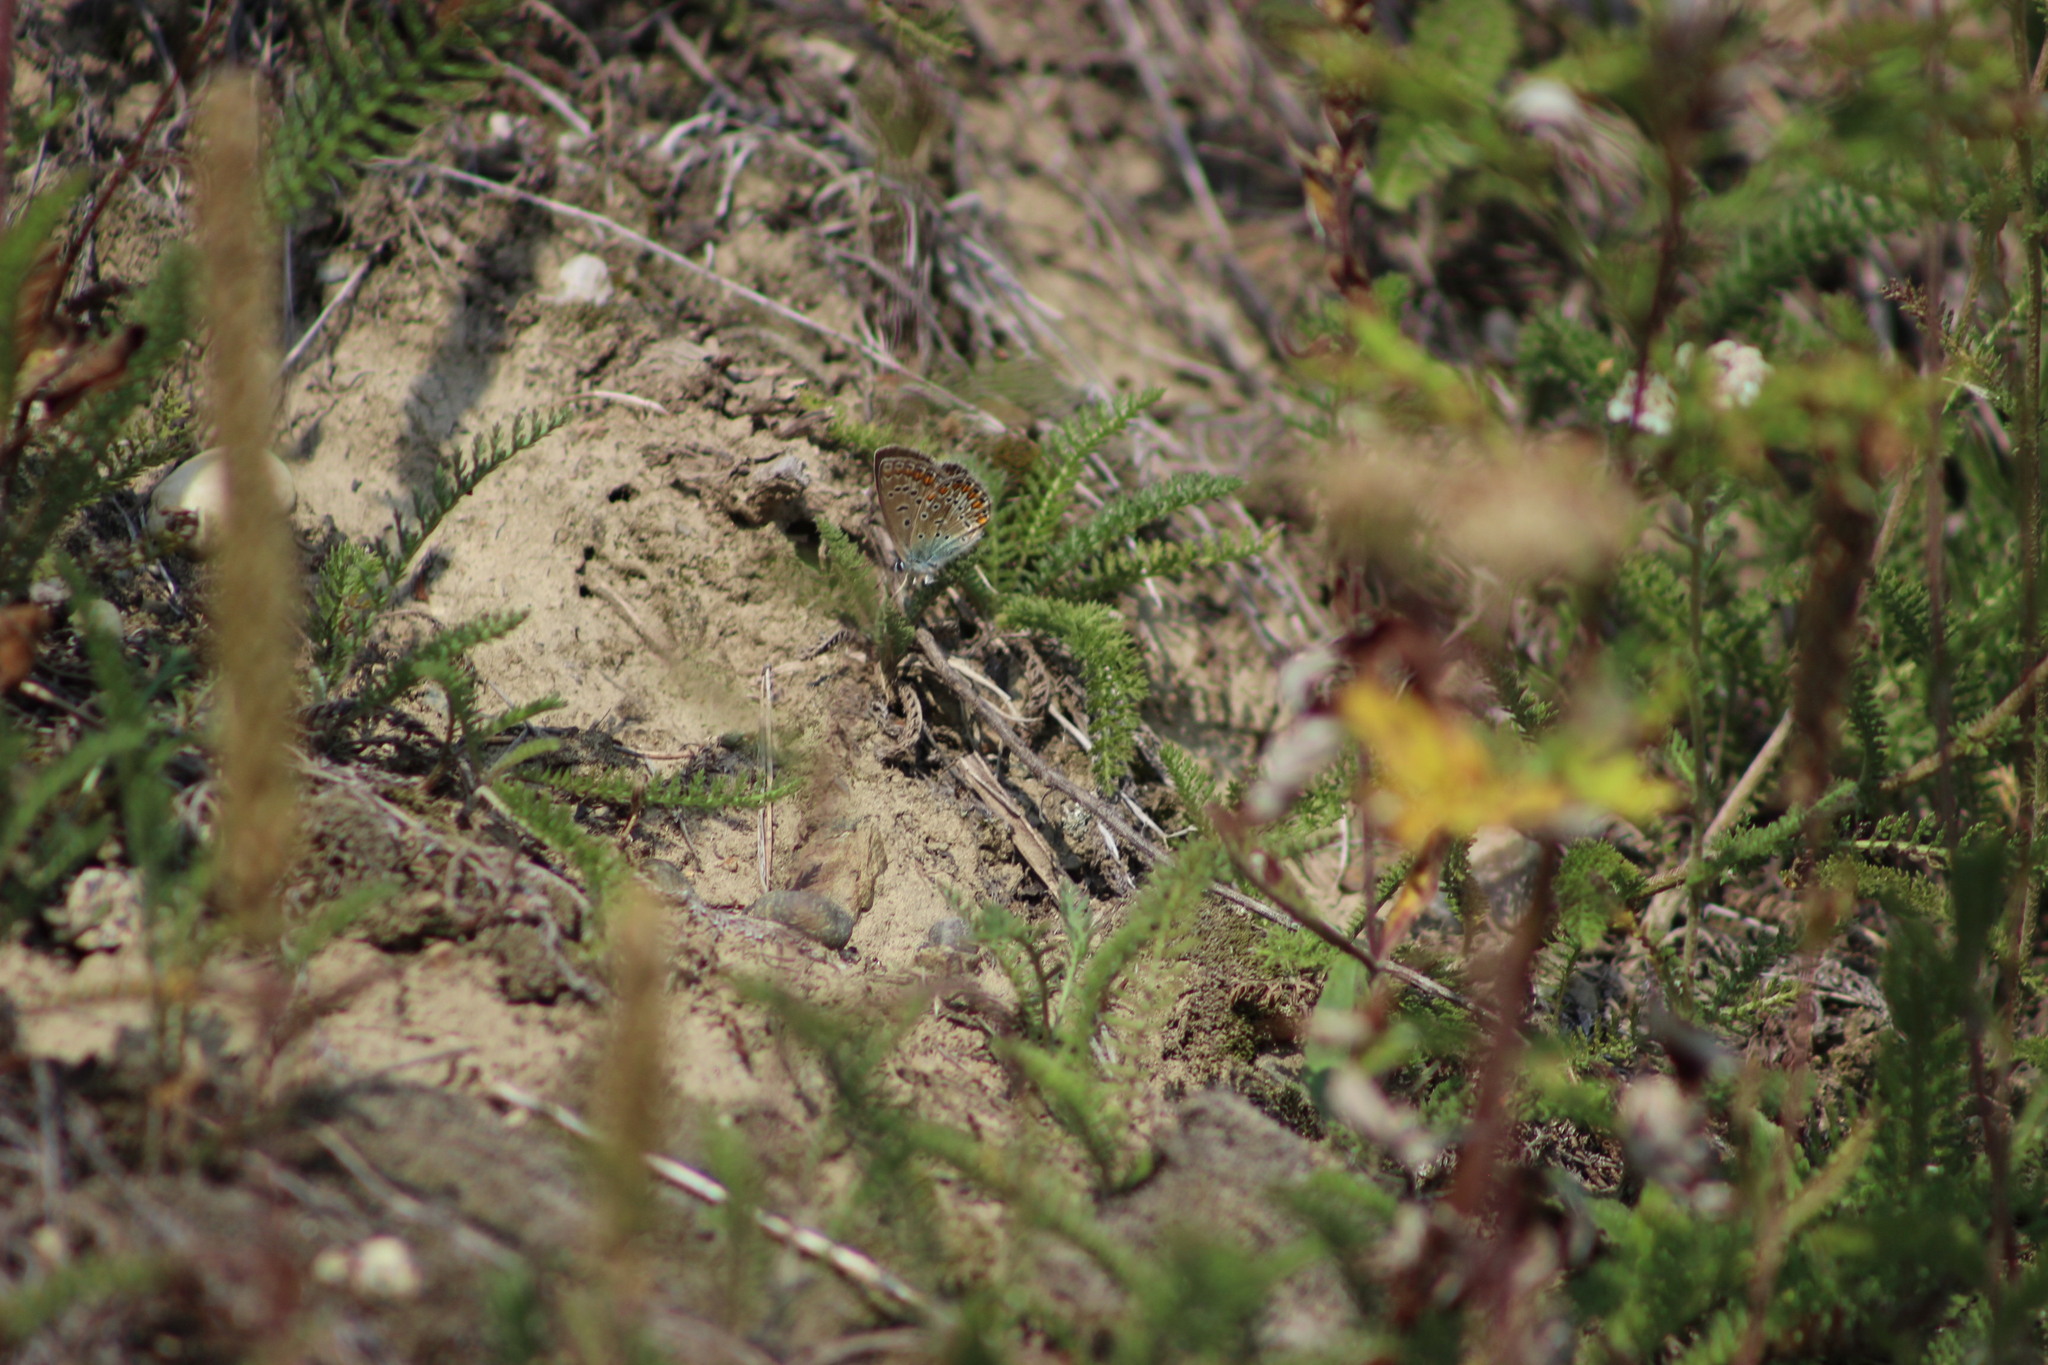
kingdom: Animalia
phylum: Arthropoda
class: Insecta
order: Lepidoptera
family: Lycaenidae
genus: Polyommatus
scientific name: Polyommatus icarus
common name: Common blue
